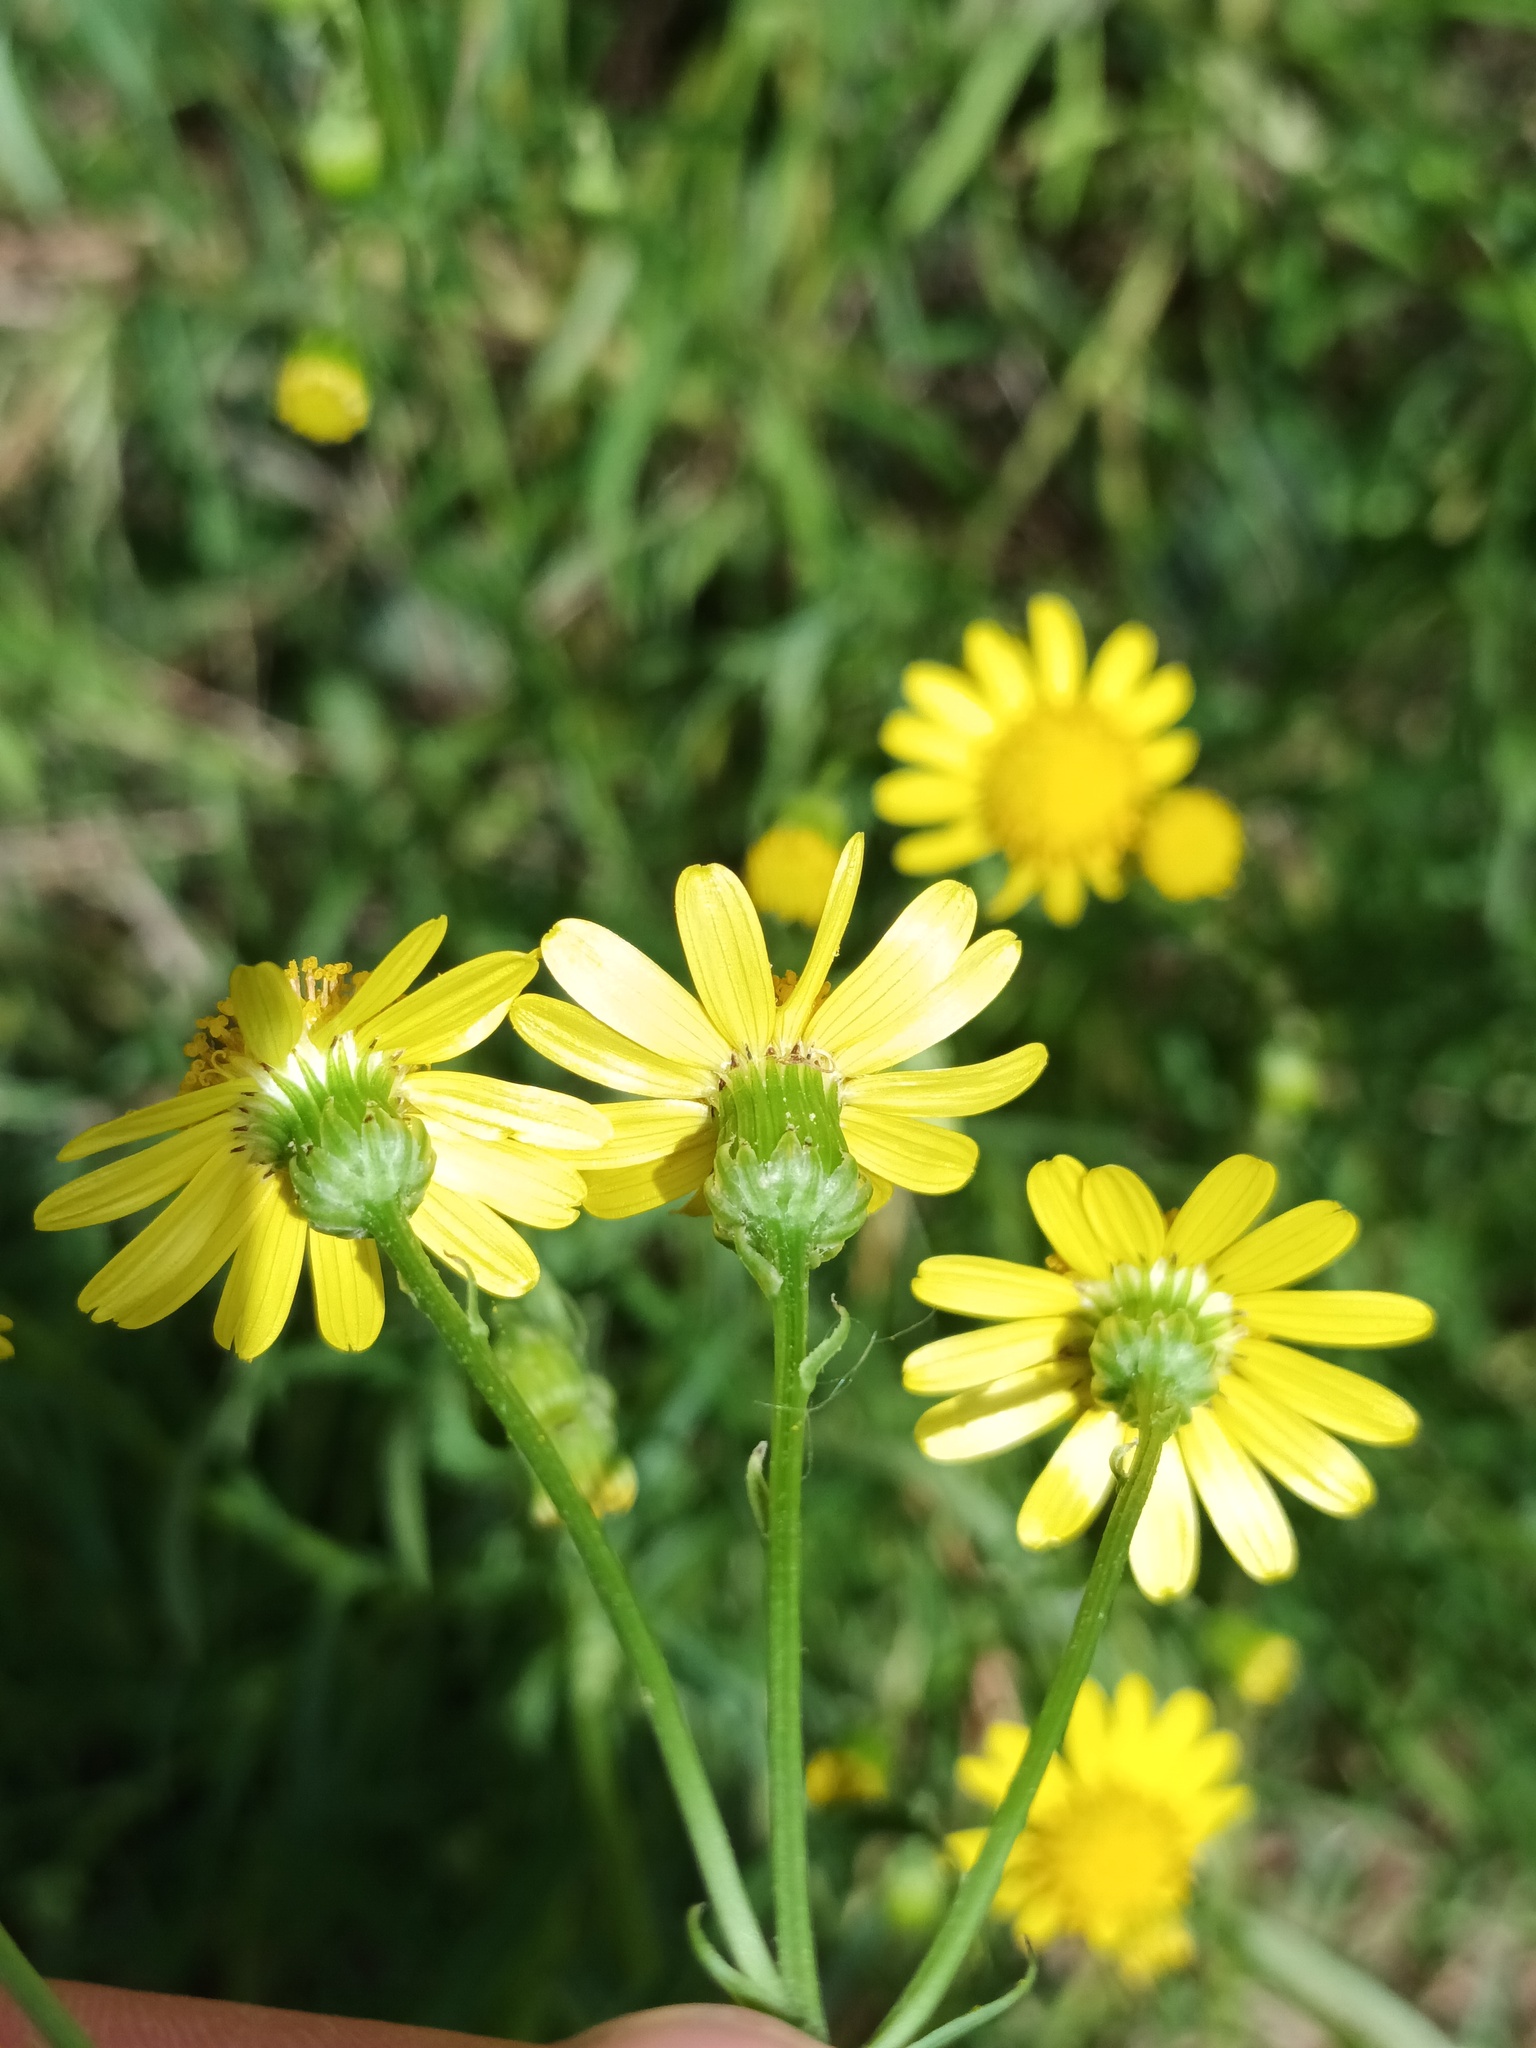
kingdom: Plantae
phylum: Tracheophyta
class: Magnoliopsida
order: Asterales
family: Asteraceae
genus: Senecio
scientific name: Senecio inaequidens
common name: Narrow-leaved ragwort
